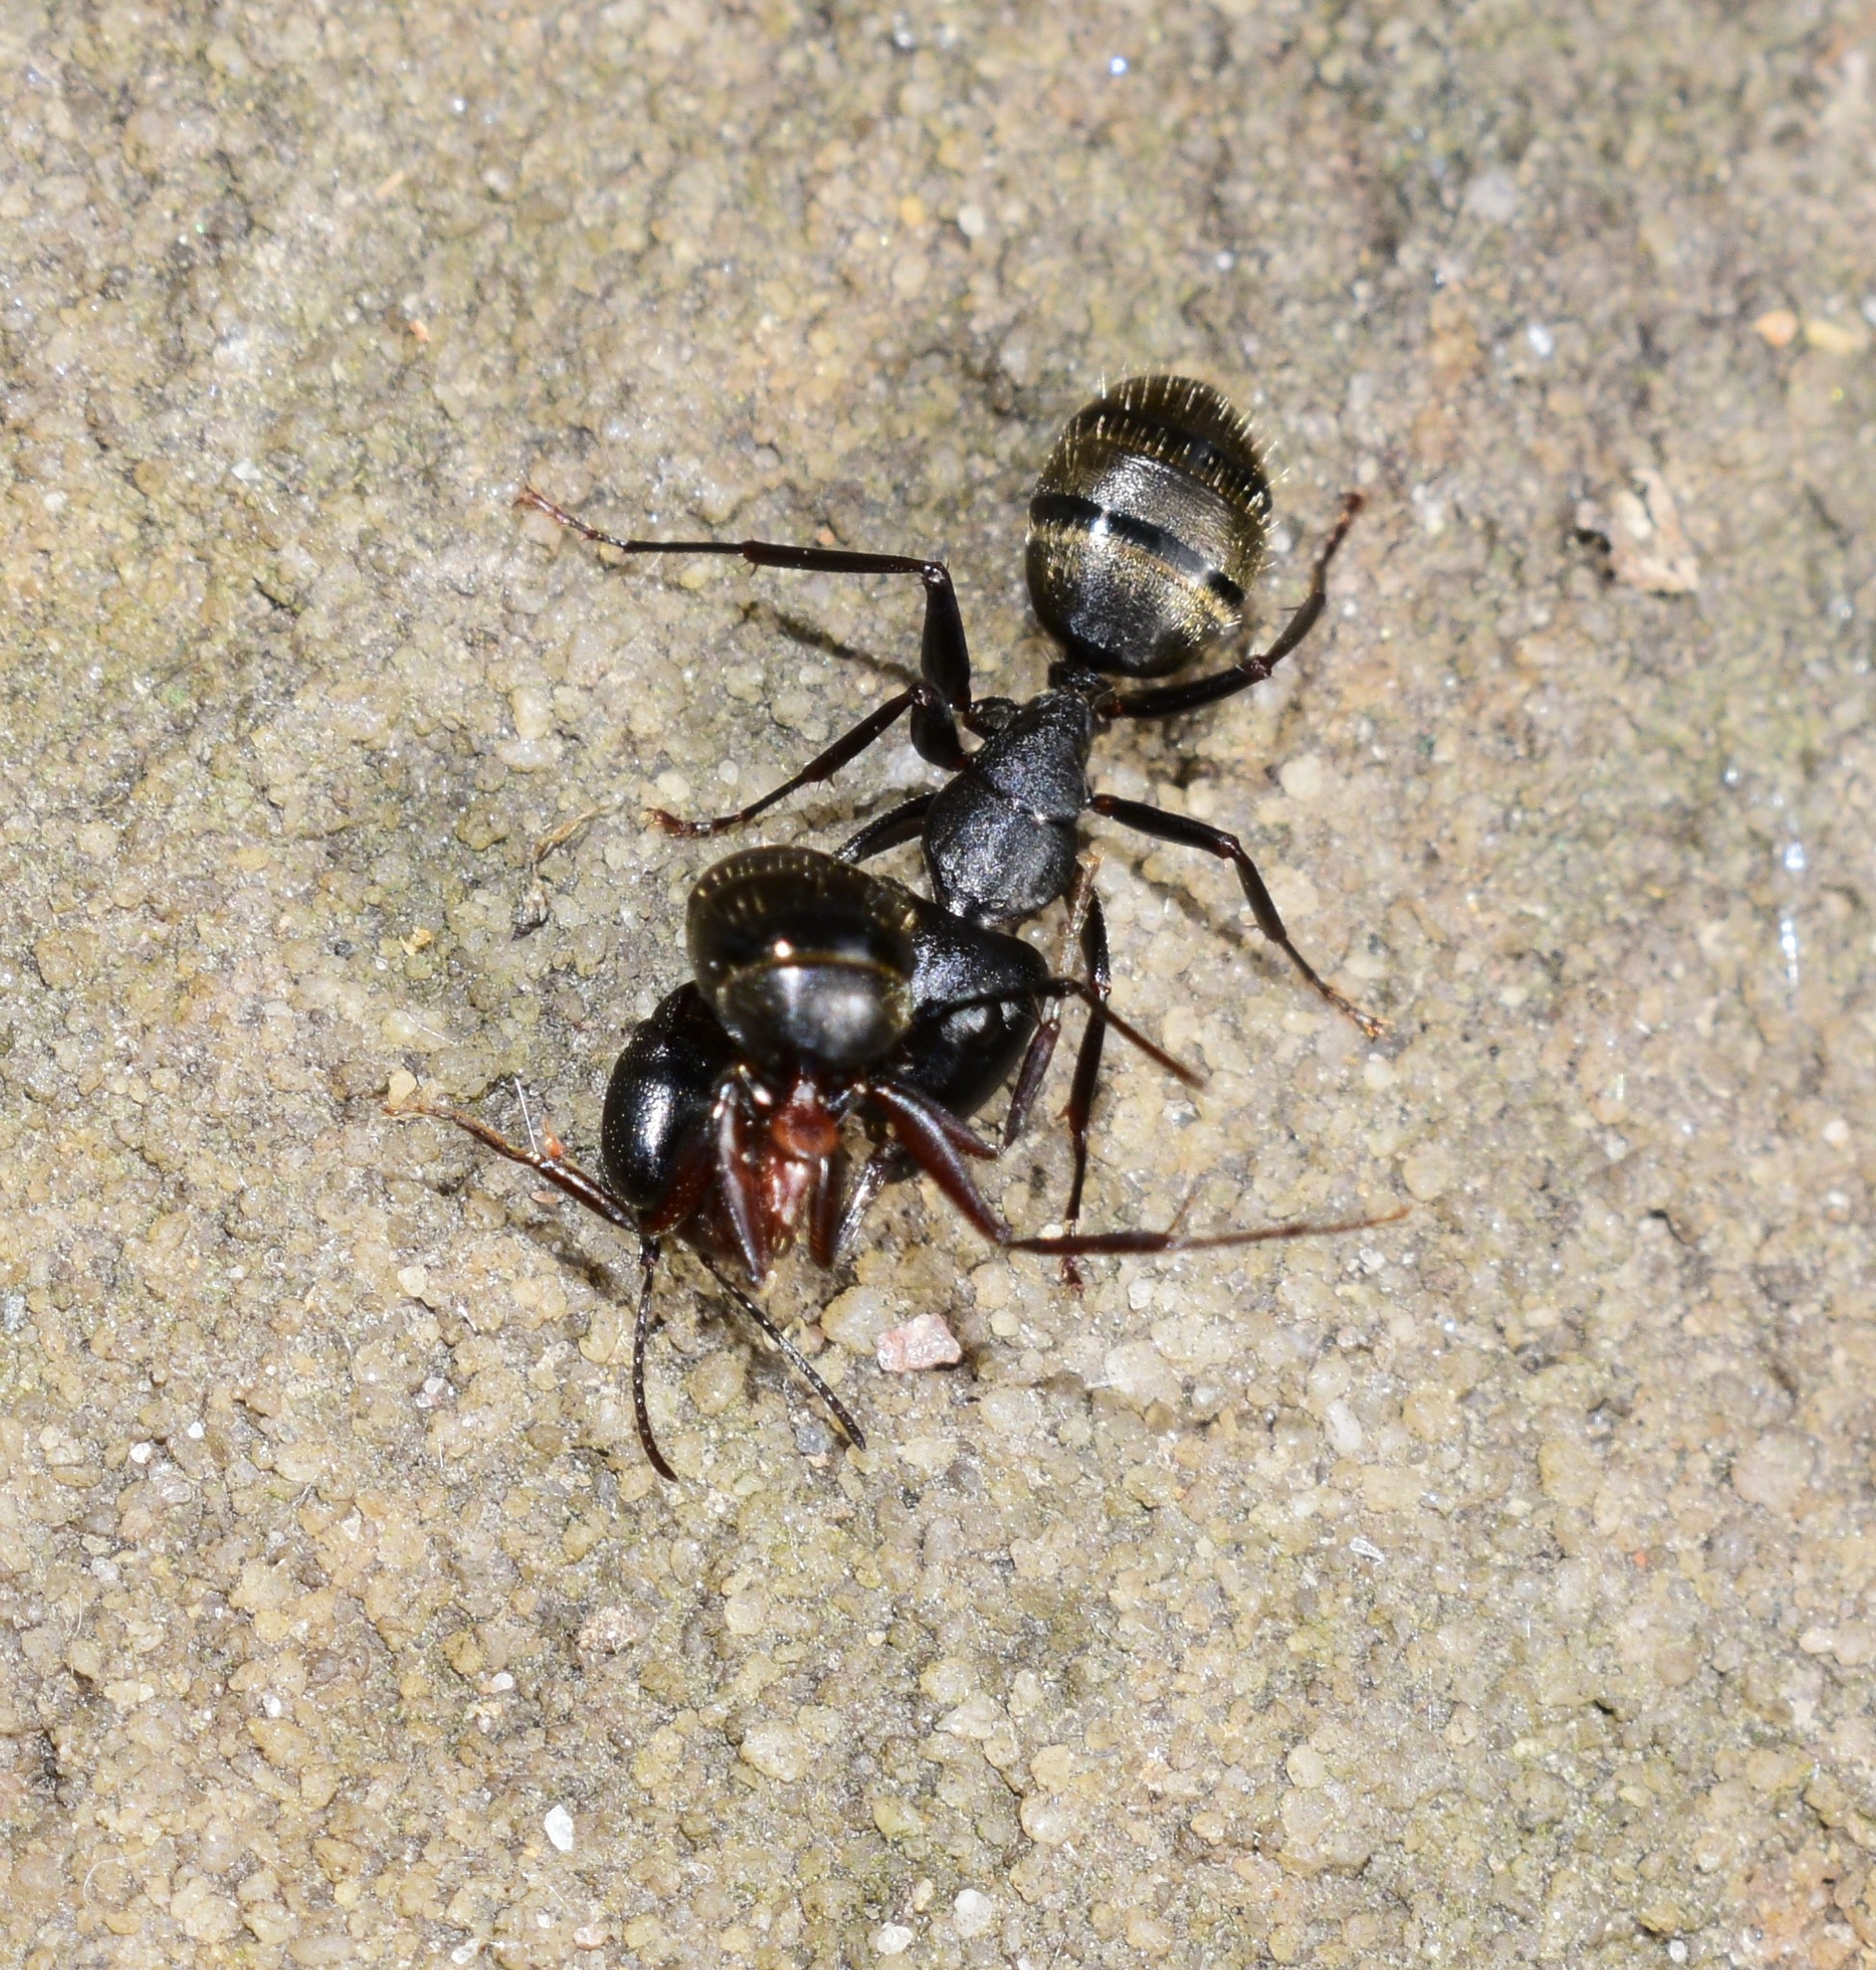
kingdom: Animalia
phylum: Arthropoda
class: Insecta
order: Hymenoptera
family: Formicidae
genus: Camponotus
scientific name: Camponotus pennsylvanicus
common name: Black carpenter ant
